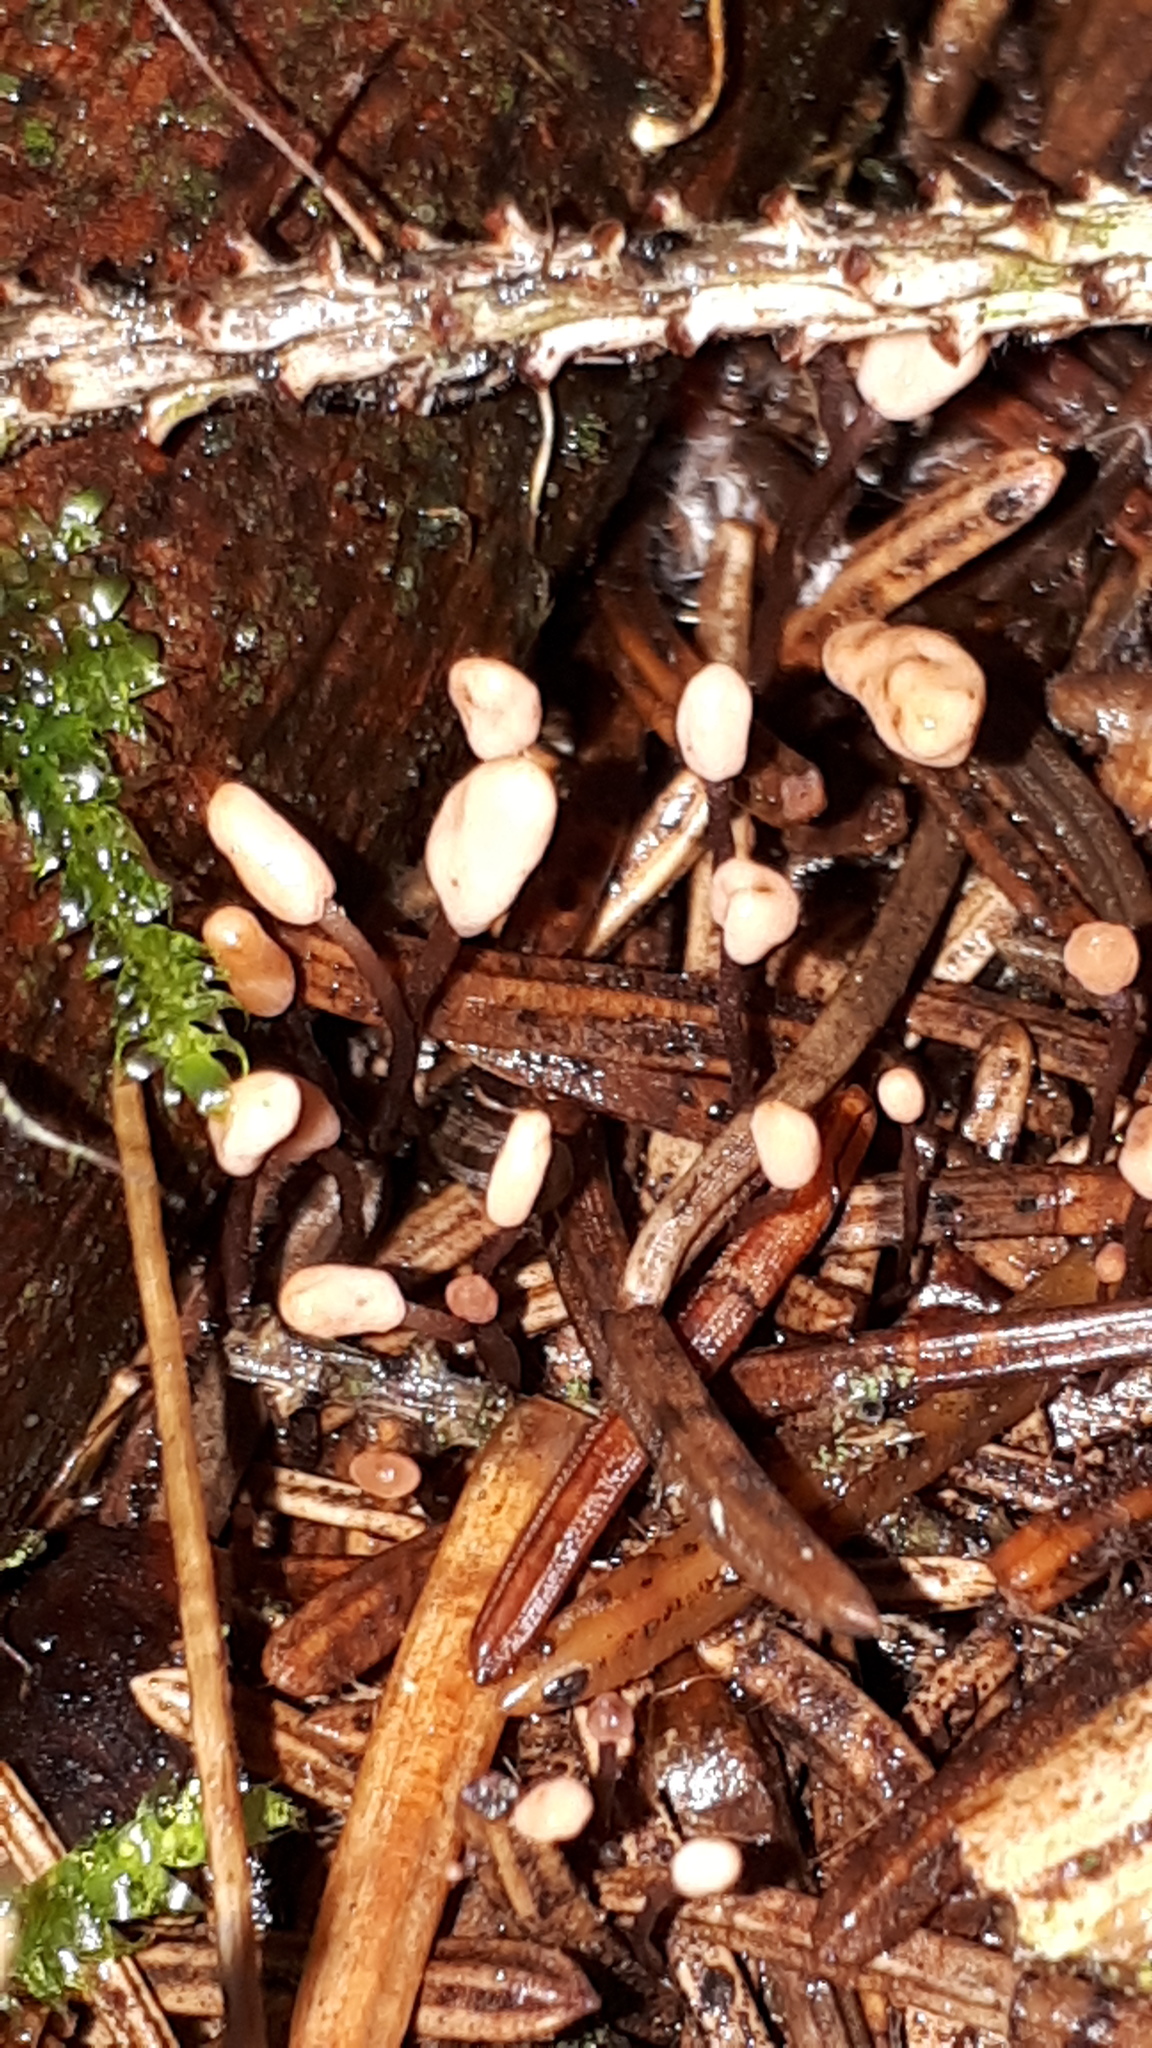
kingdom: Fungi
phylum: Ascomycota
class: Leotiomycetes
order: Helotiales
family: Cenangiaceae
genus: Heyderia
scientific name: Heyderia abietis
